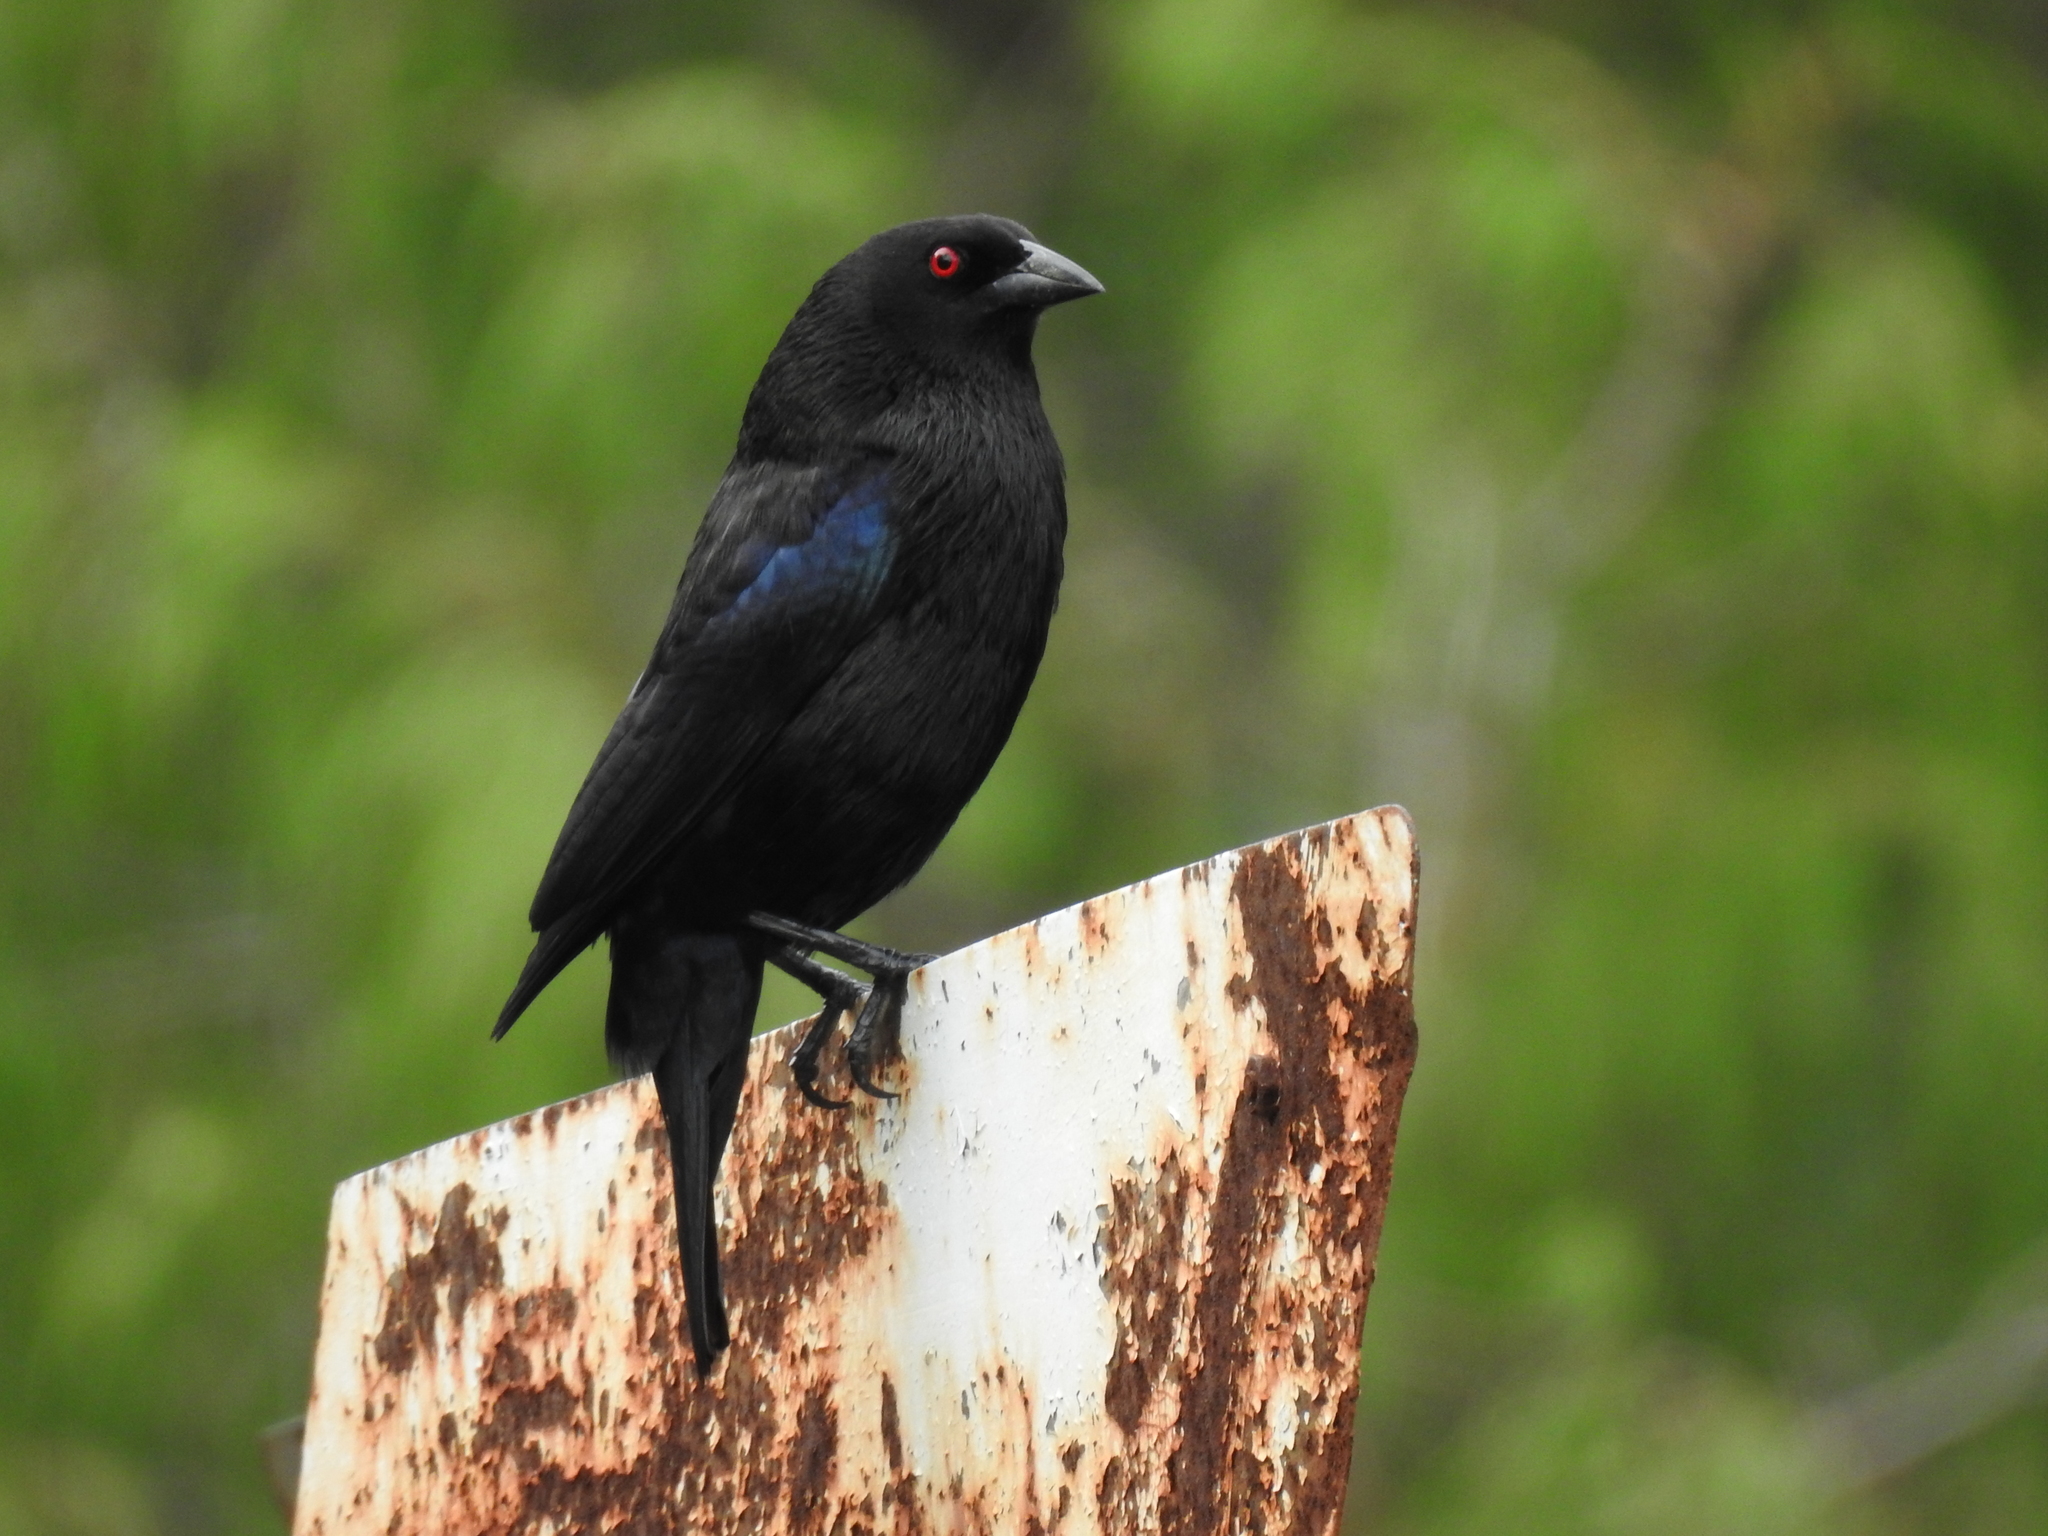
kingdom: Animalia
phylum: Chordata
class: Aves
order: Passeriformes
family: Icteridae
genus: Molothrus
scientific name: Molothrus aeneus
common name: Bronzed cowbird
